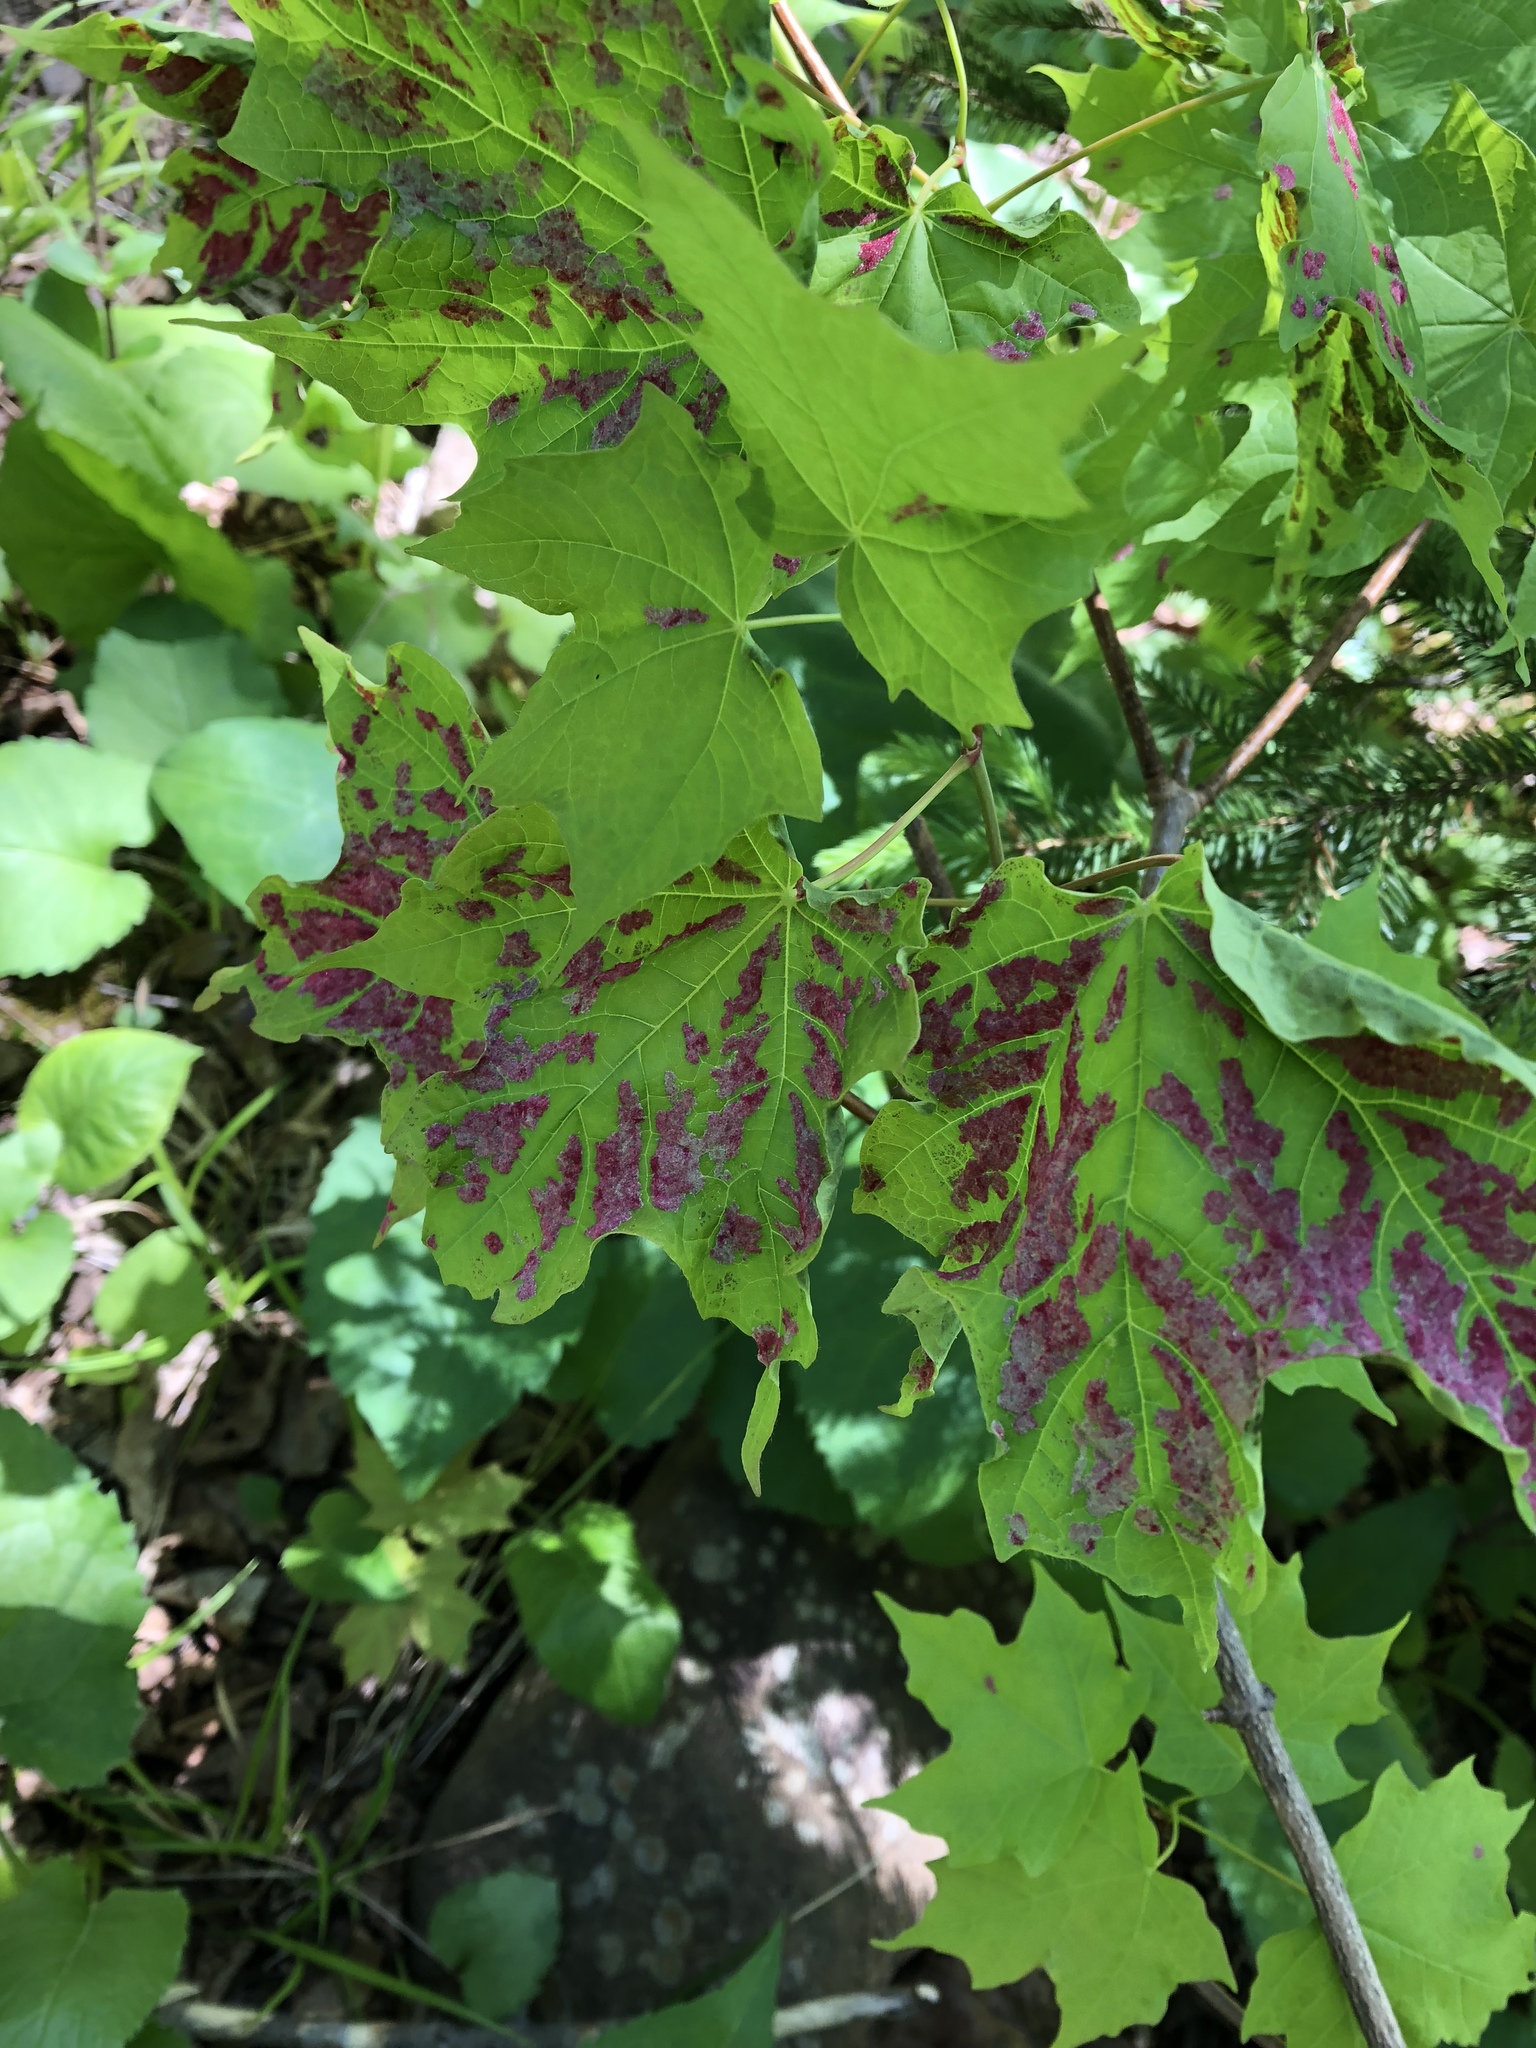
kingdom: Animalia
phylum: Arthropoda
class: Arachnida
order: Trombidiformes
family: Eriophyidae
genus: Aceria
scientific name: Aceria
